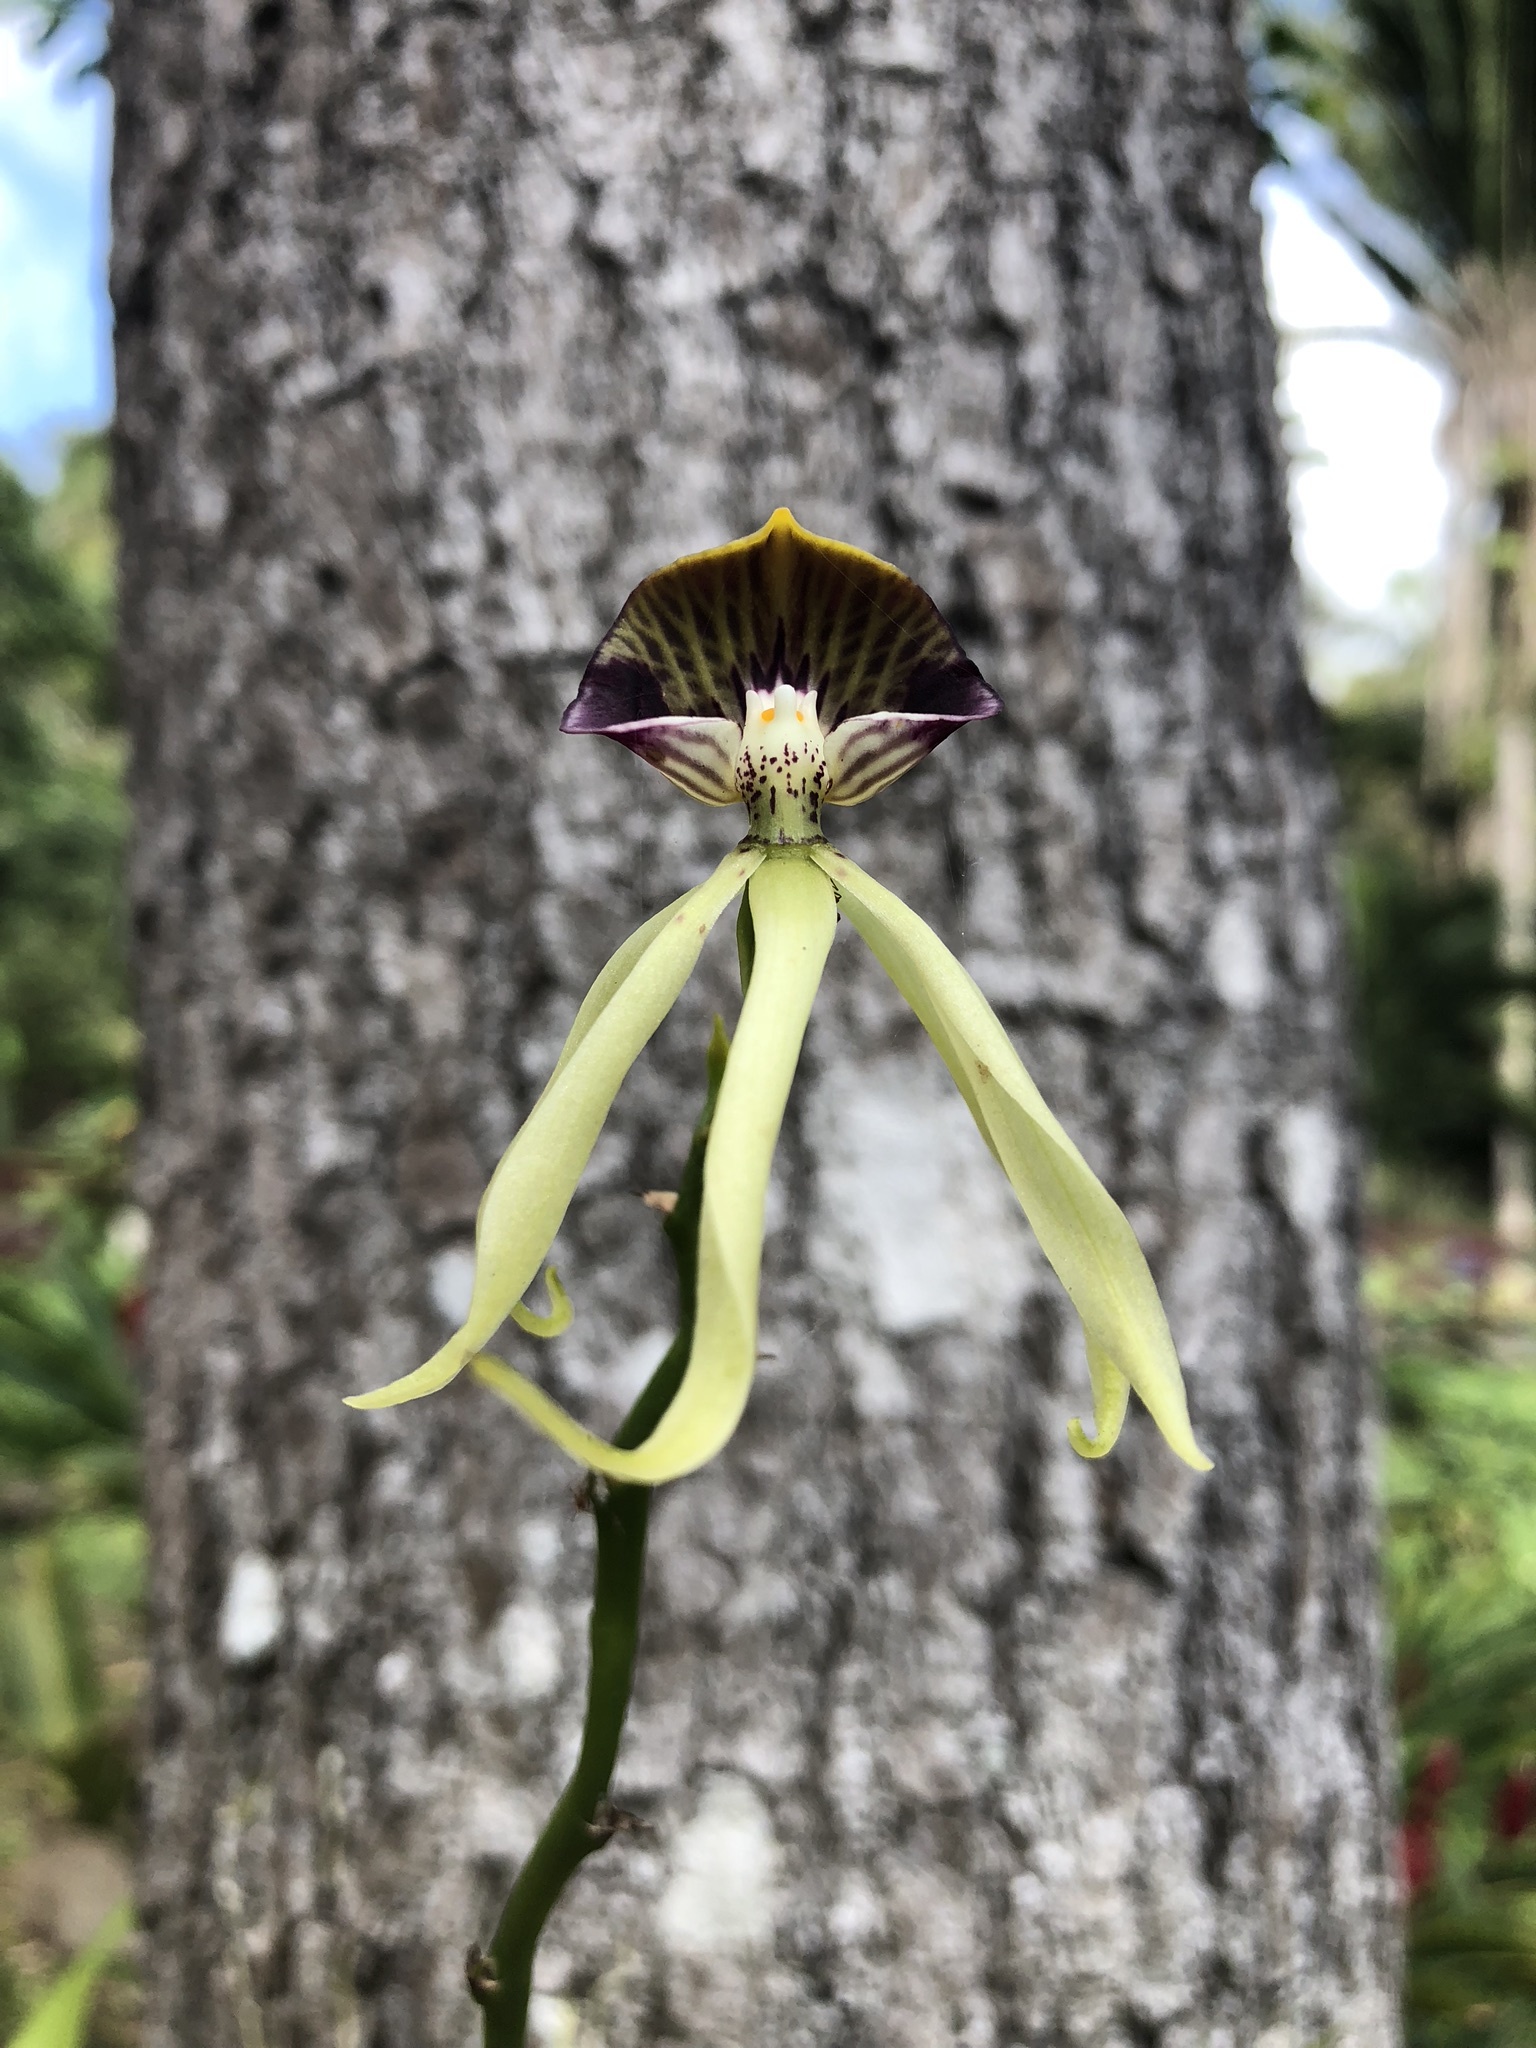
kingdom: Plantae
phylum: Tracheophyta
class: Liliopsida
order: Asparagales
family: Orchidaceae
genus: Prosthechea
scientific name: Prosthechea cochleata
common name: Clamshell orchid
